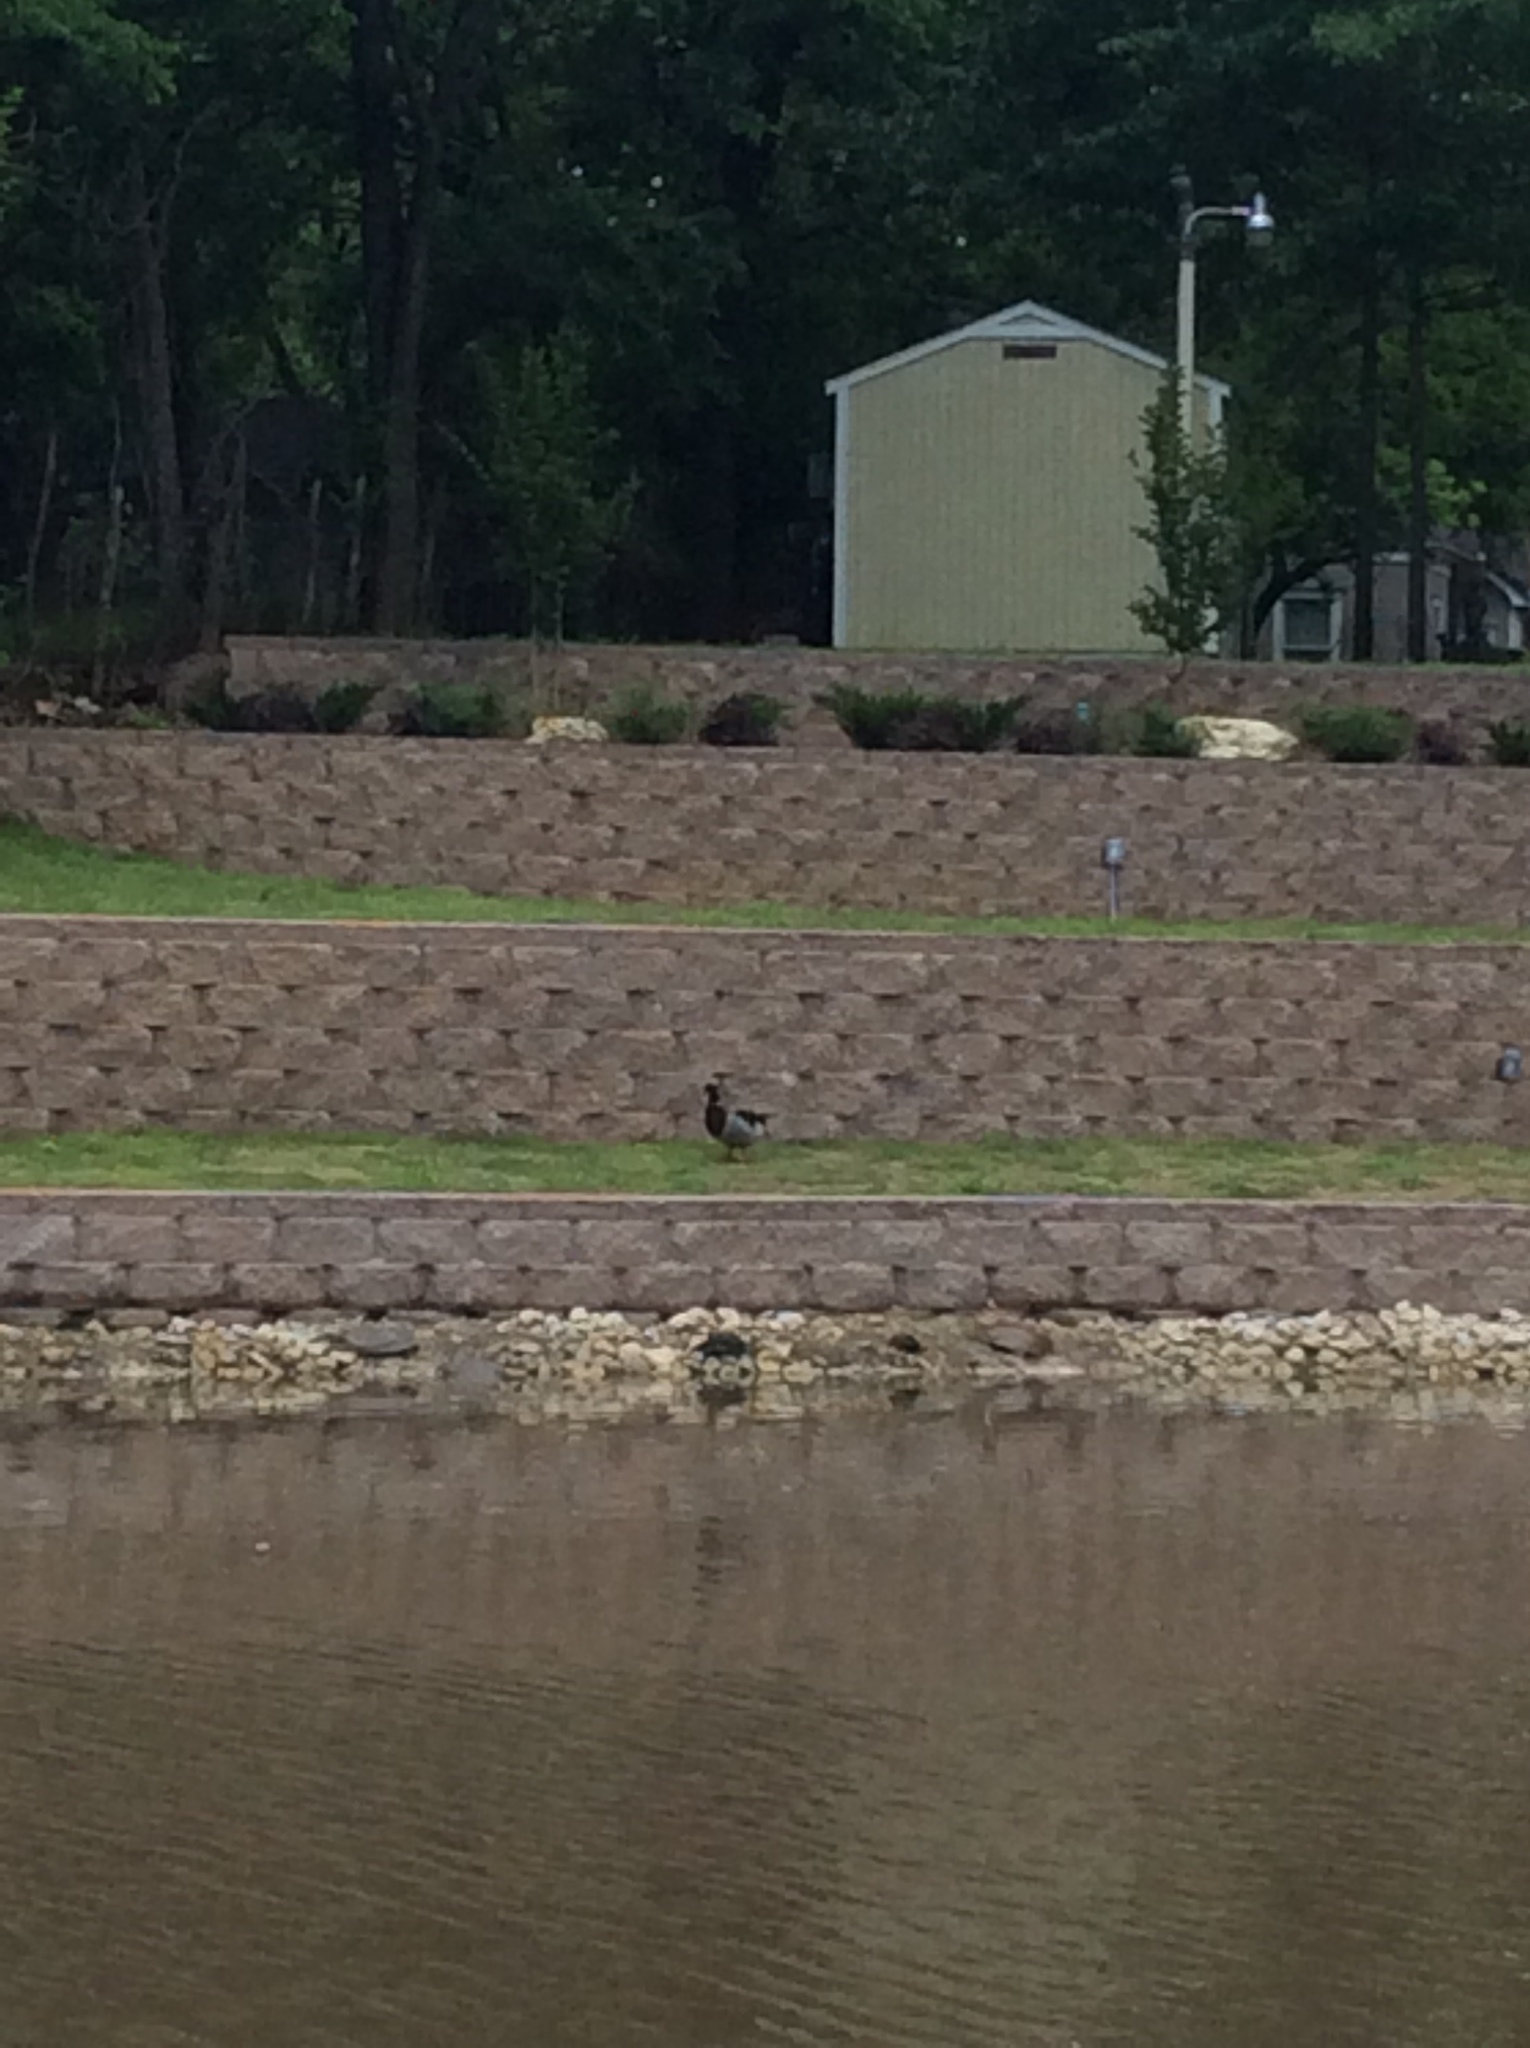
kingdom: Animalia
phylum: Chordata
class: Aves
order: Anseriformes
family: Anatidae
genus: Anas
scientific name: Anas platyrhynchos
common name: Mallard
